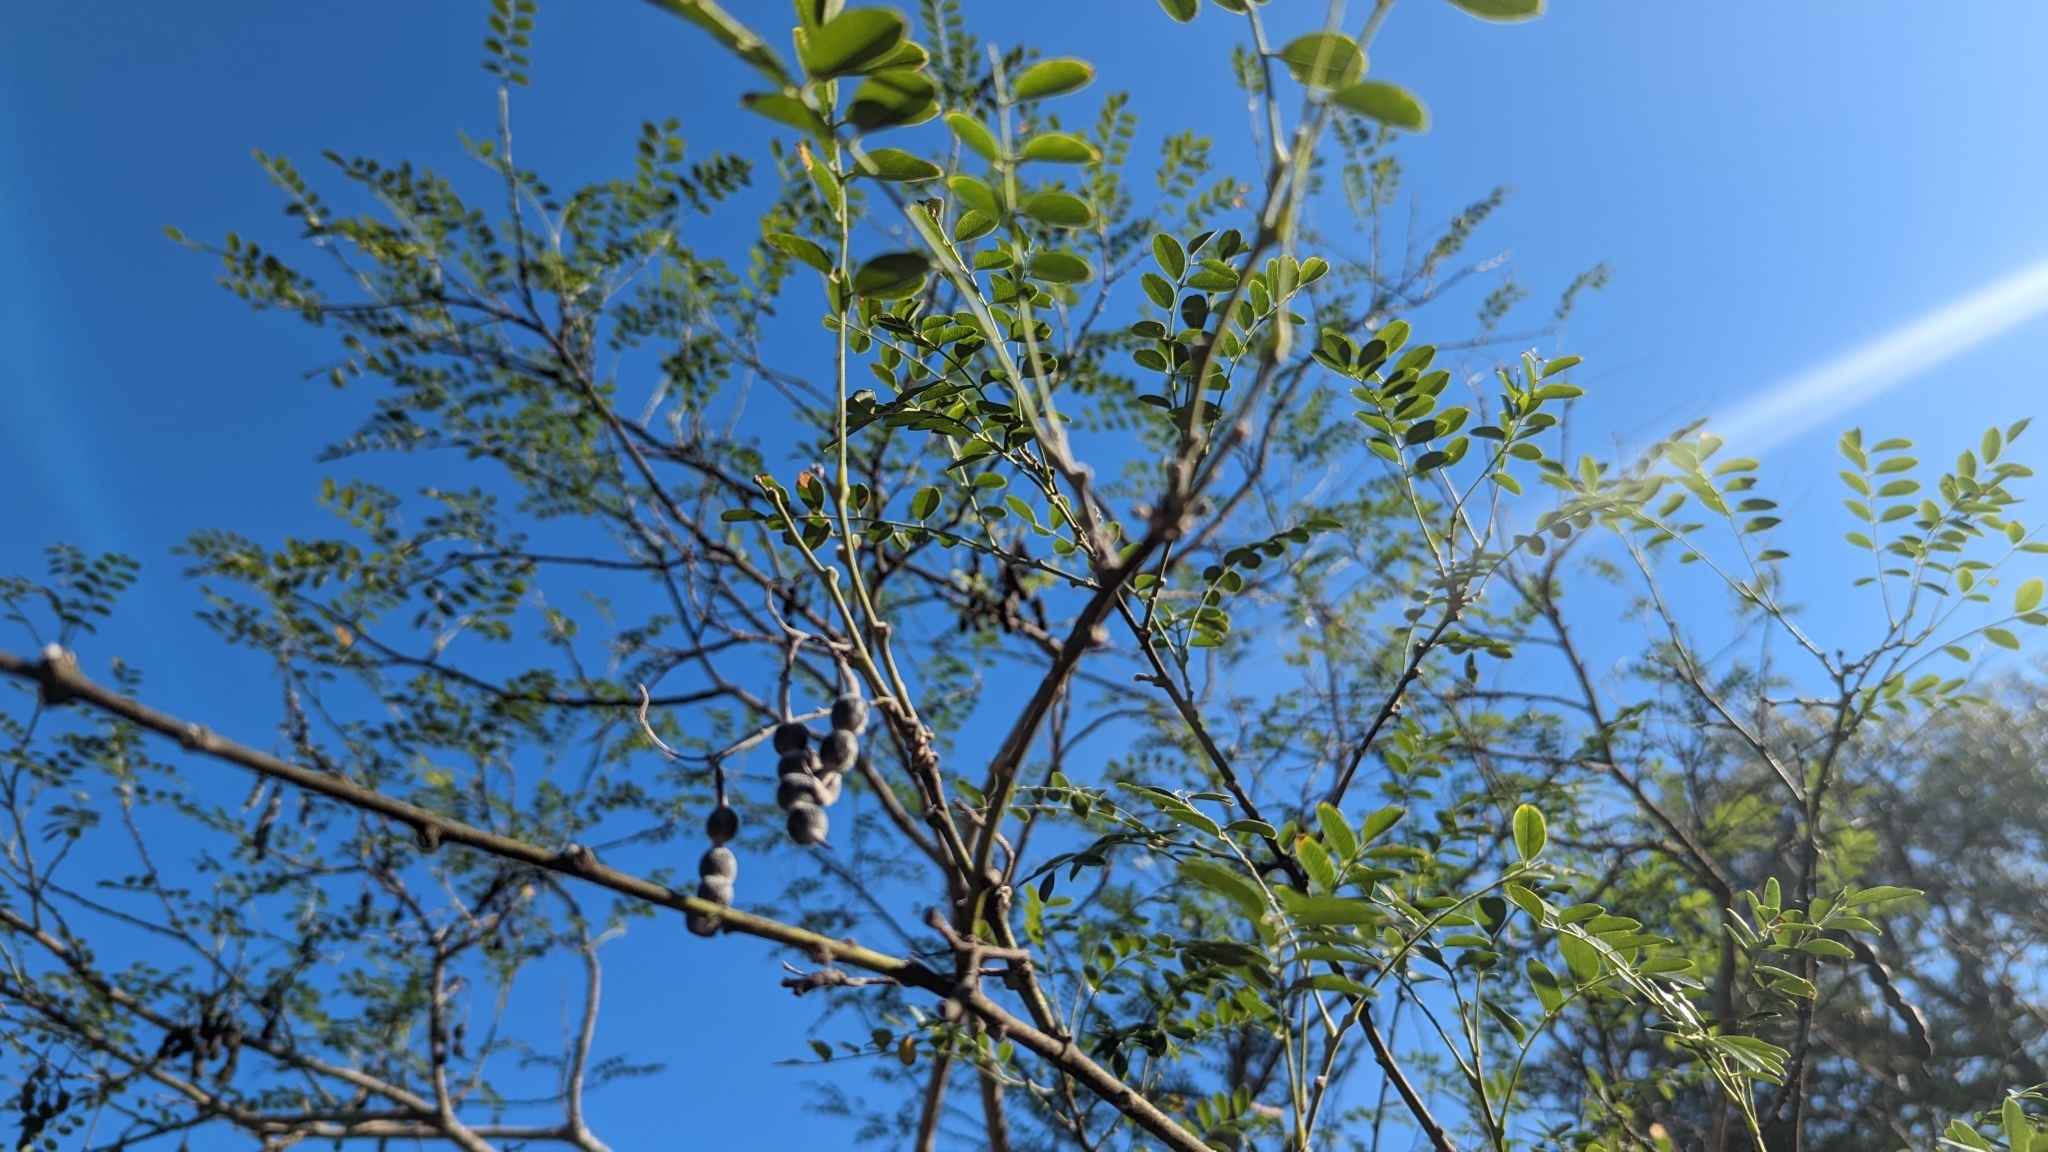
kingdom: Plantae
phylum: Tracheophyta
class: Magnoliopsida
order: Fabales
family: Fabaceae
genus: Styphnolobium
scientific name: Styphnolobium affine
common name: Texas sophora
